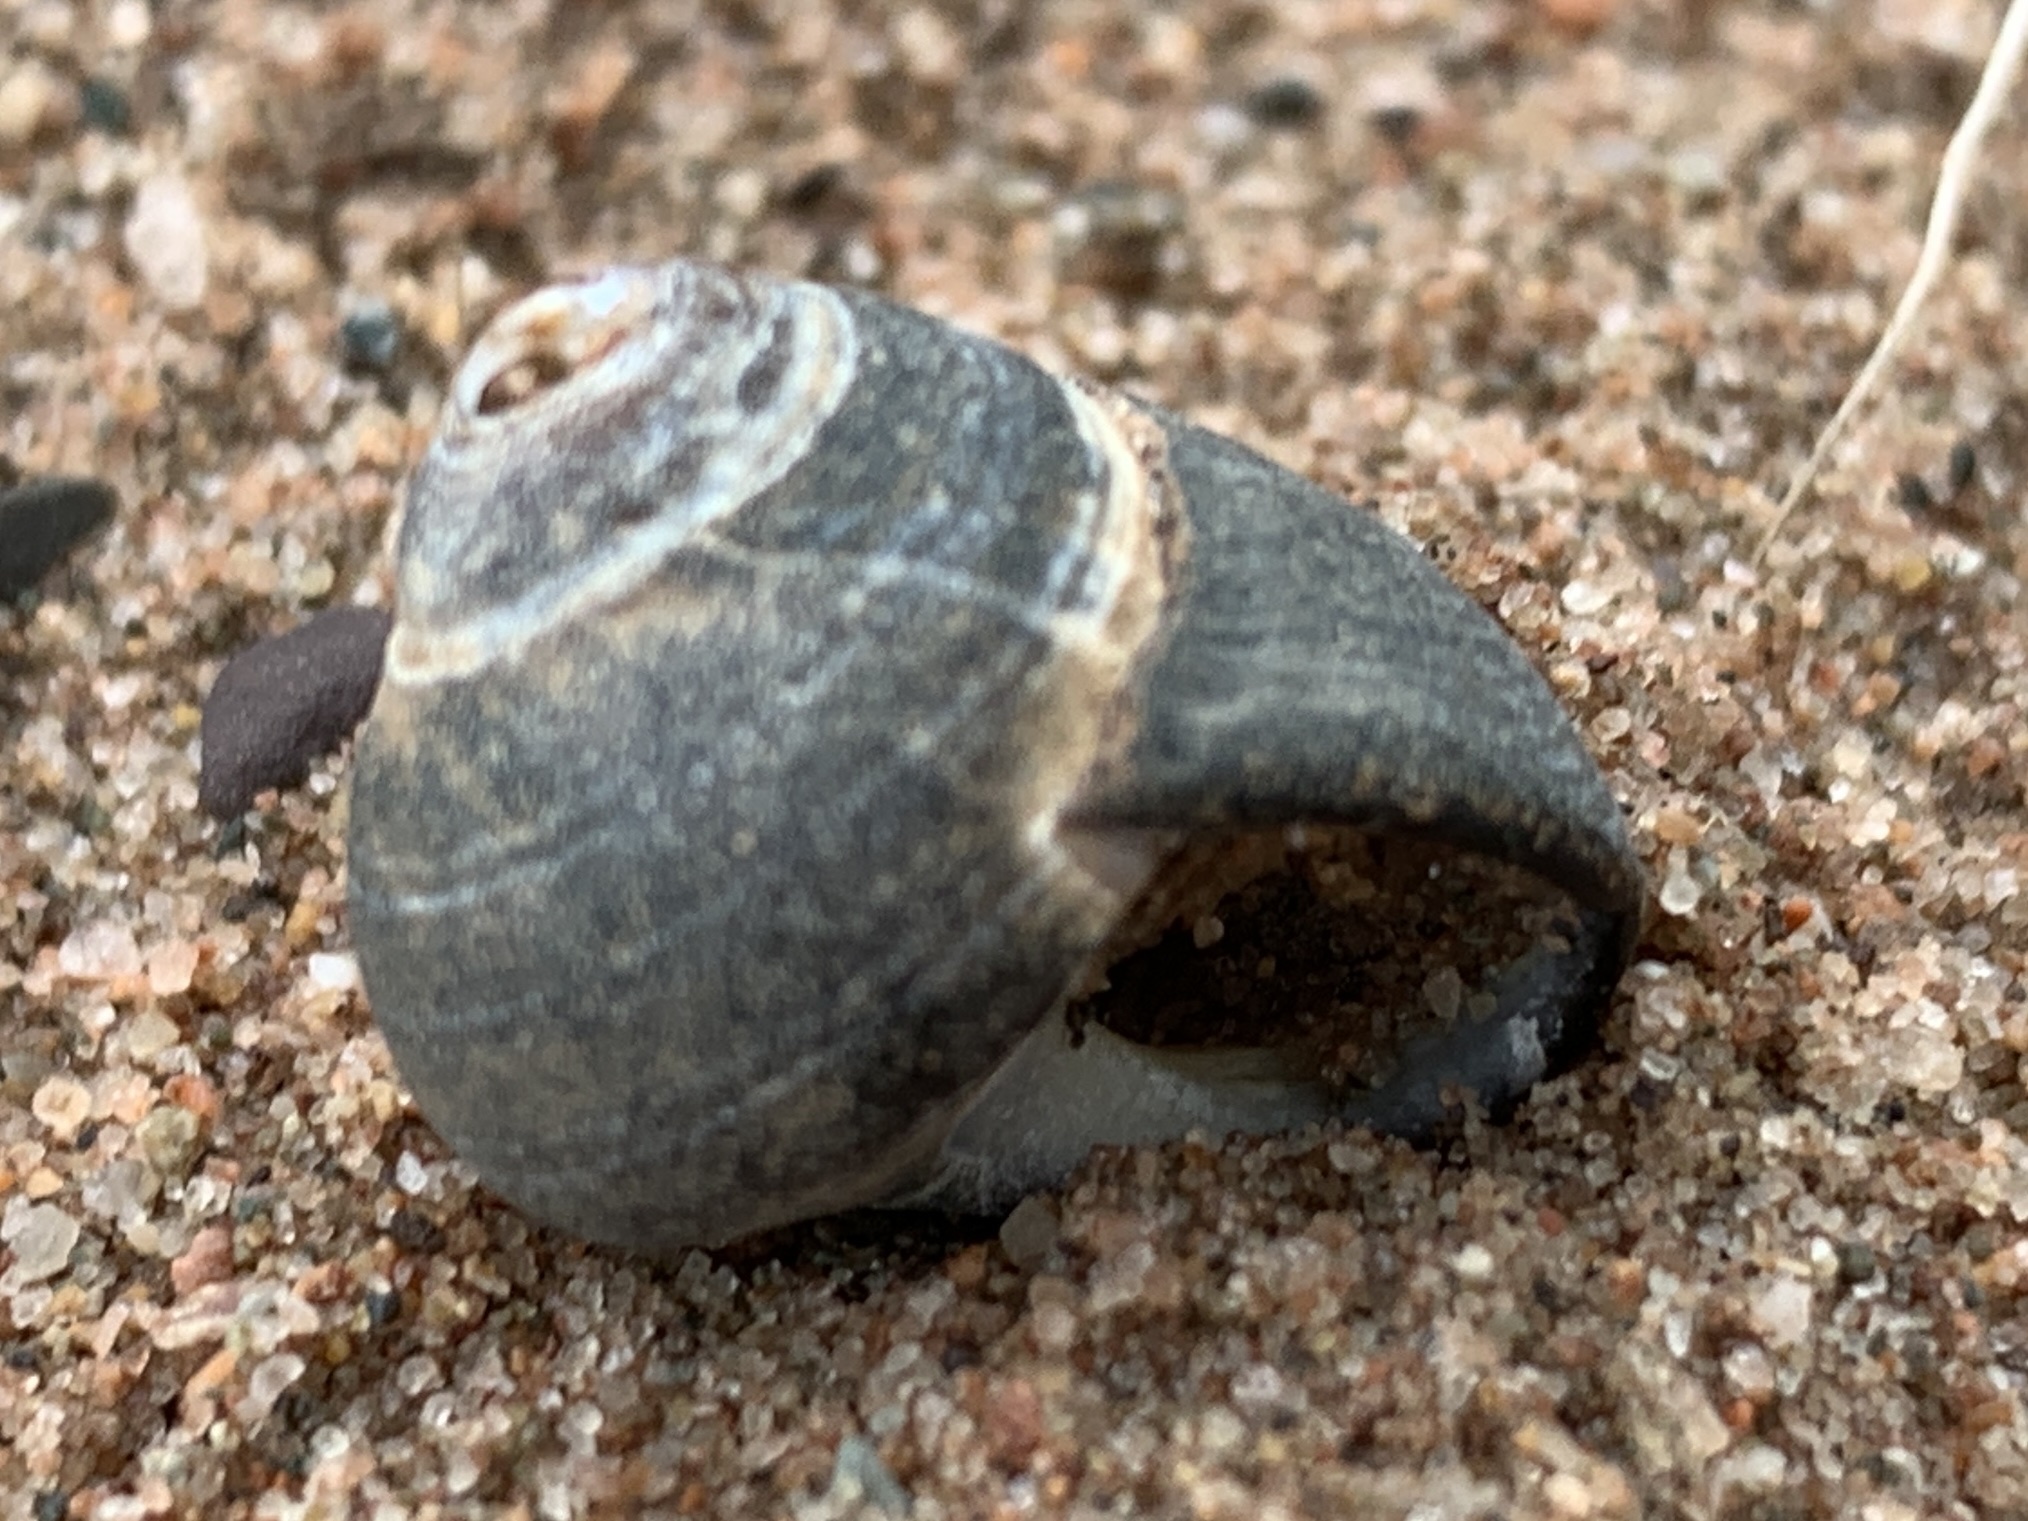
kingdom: Animalia
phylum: Mollusca
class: Gastropoda
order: Littorinimorpha
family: Littorinidae
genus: Littorina
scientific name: Littorina littorea
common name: Common periwinkle
